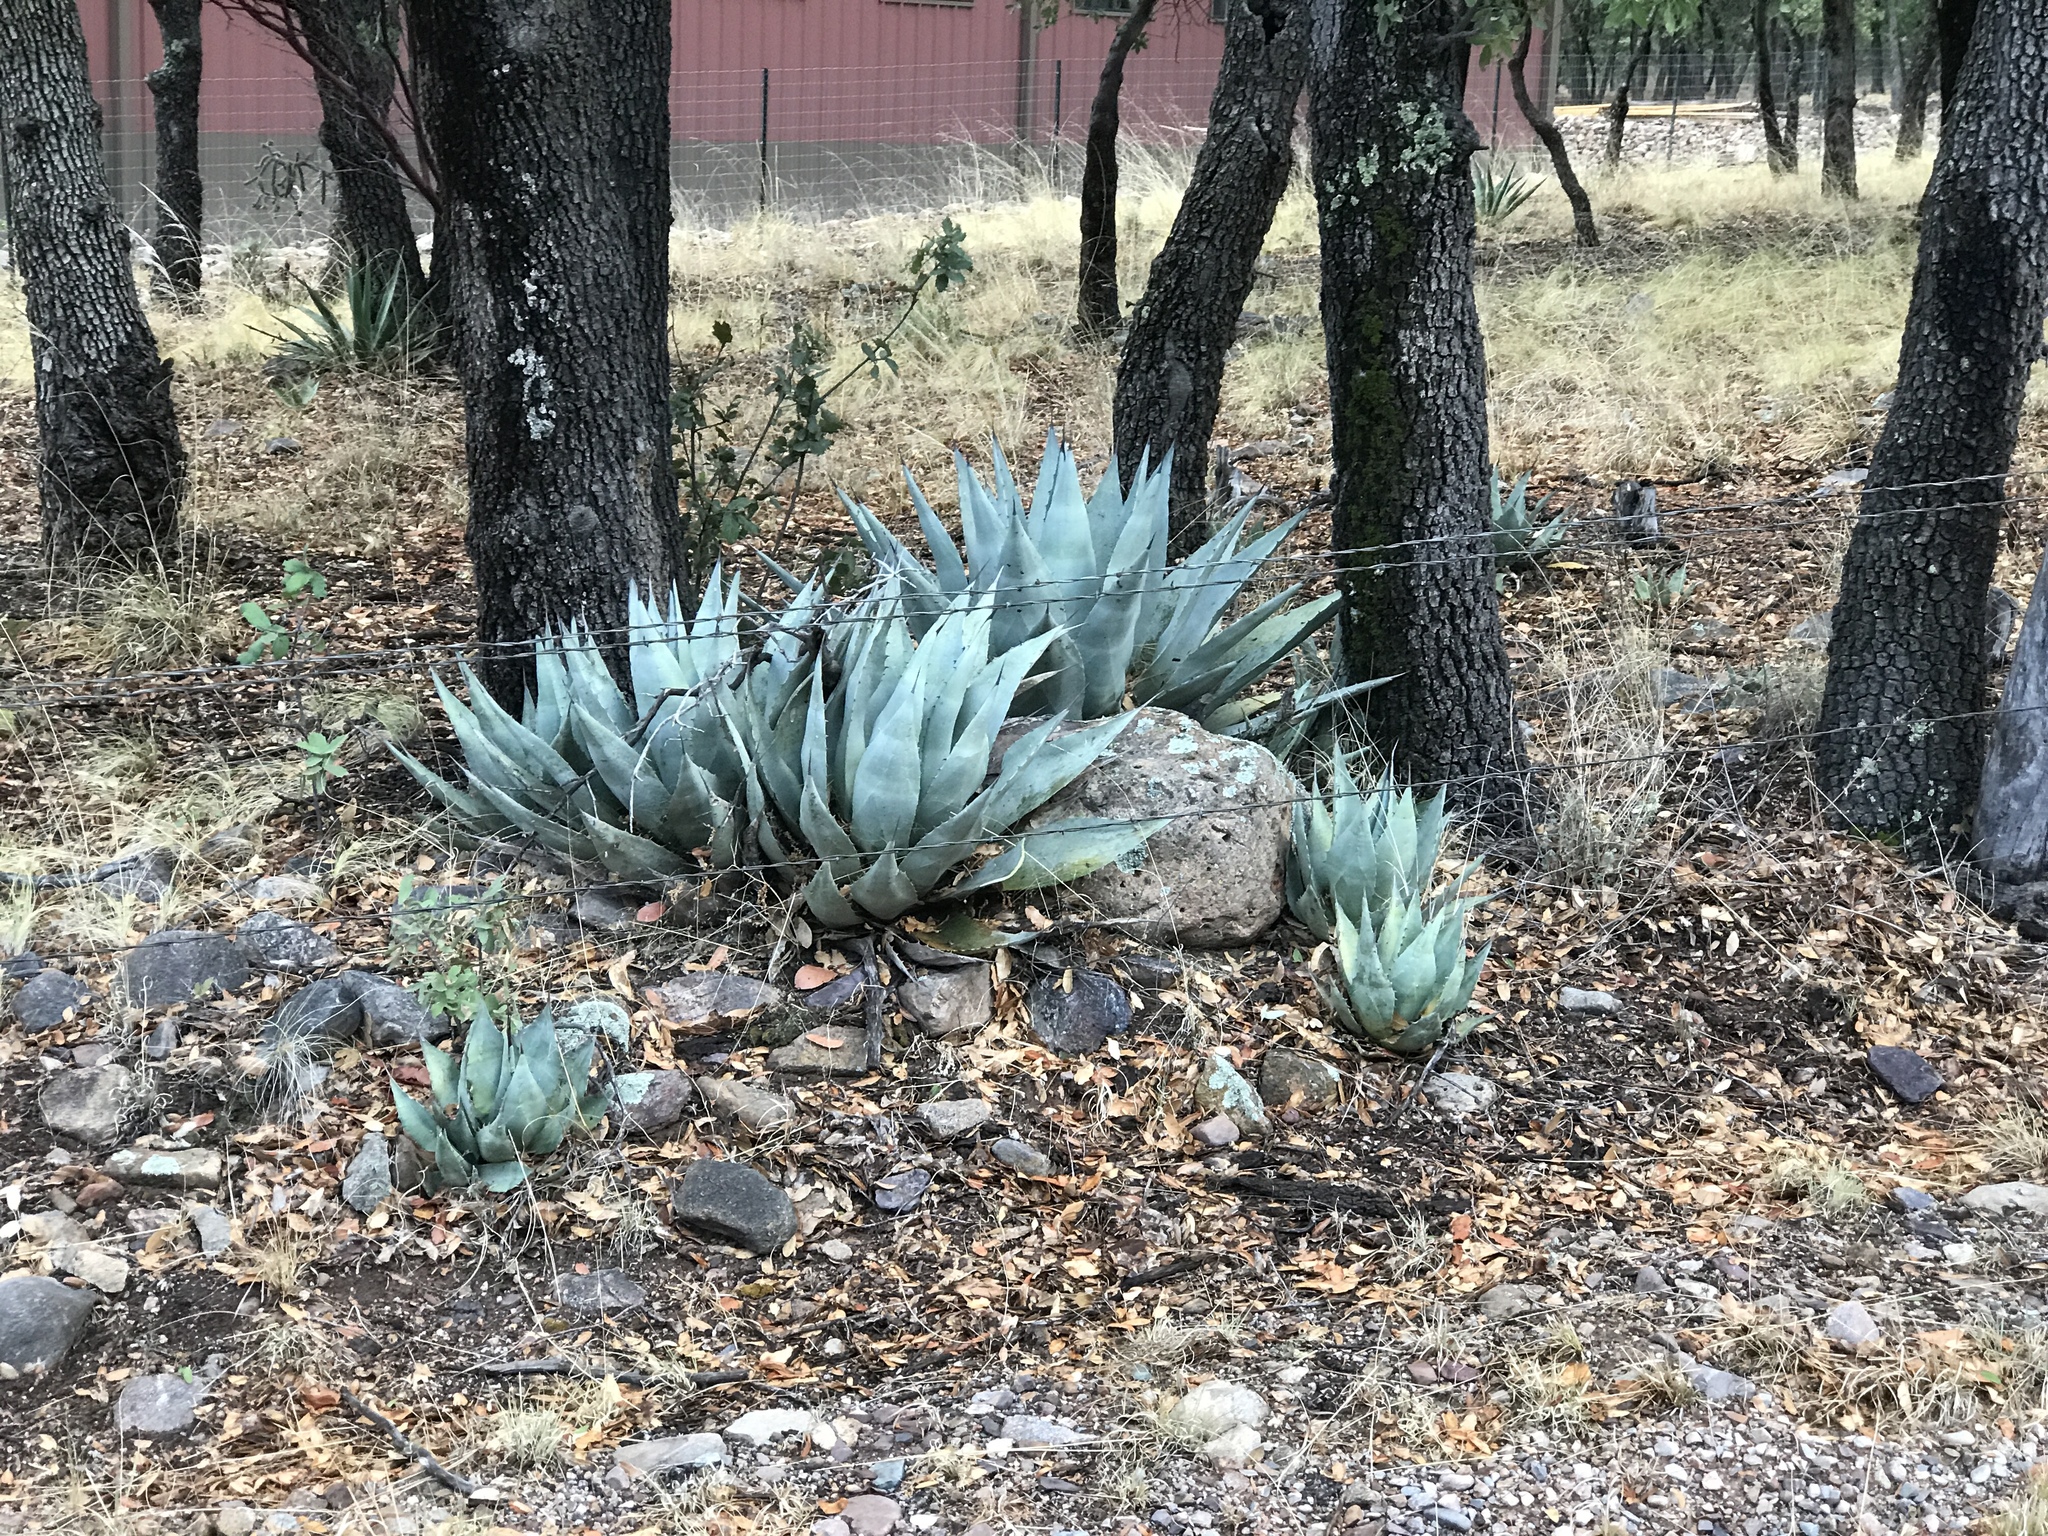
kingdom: Plantae
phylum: Tracheophyta
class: Liliopsida
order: Asparagales
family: Asparagaceae
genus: Agave
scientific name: Agave parryi
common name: Parry's agave
